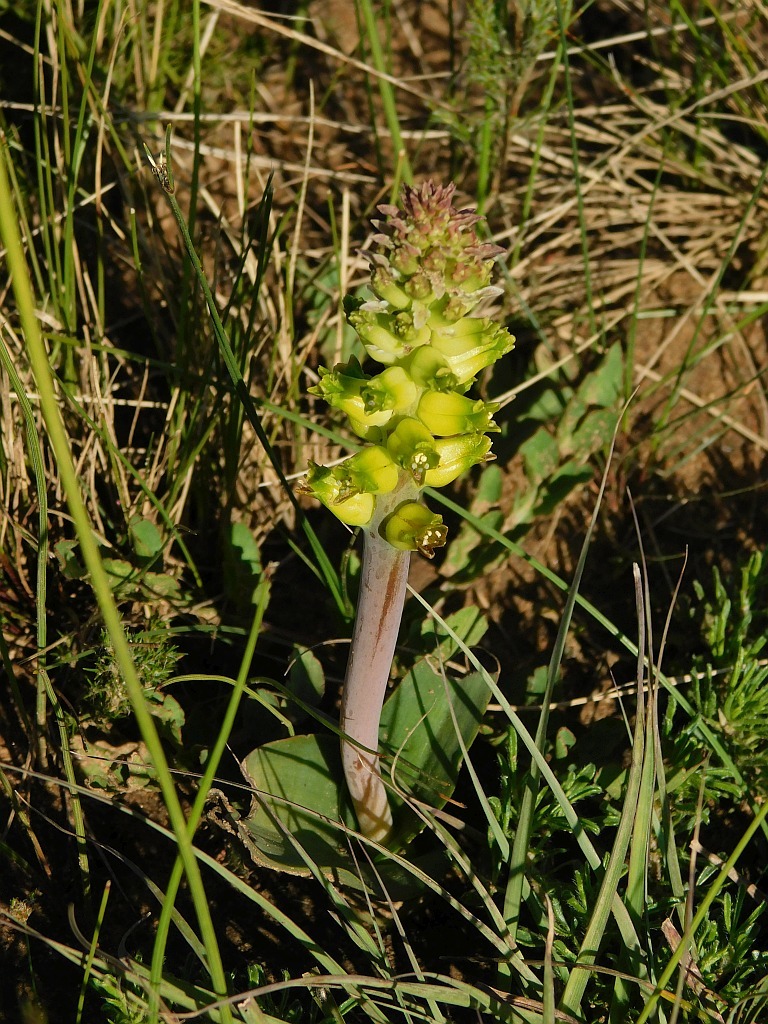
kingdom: Plantae
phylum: Tracheophyta
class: Liliopsida
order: Asparagales
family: Asparagaceae
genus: Lachenalia
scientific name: Lachenalia lutea
